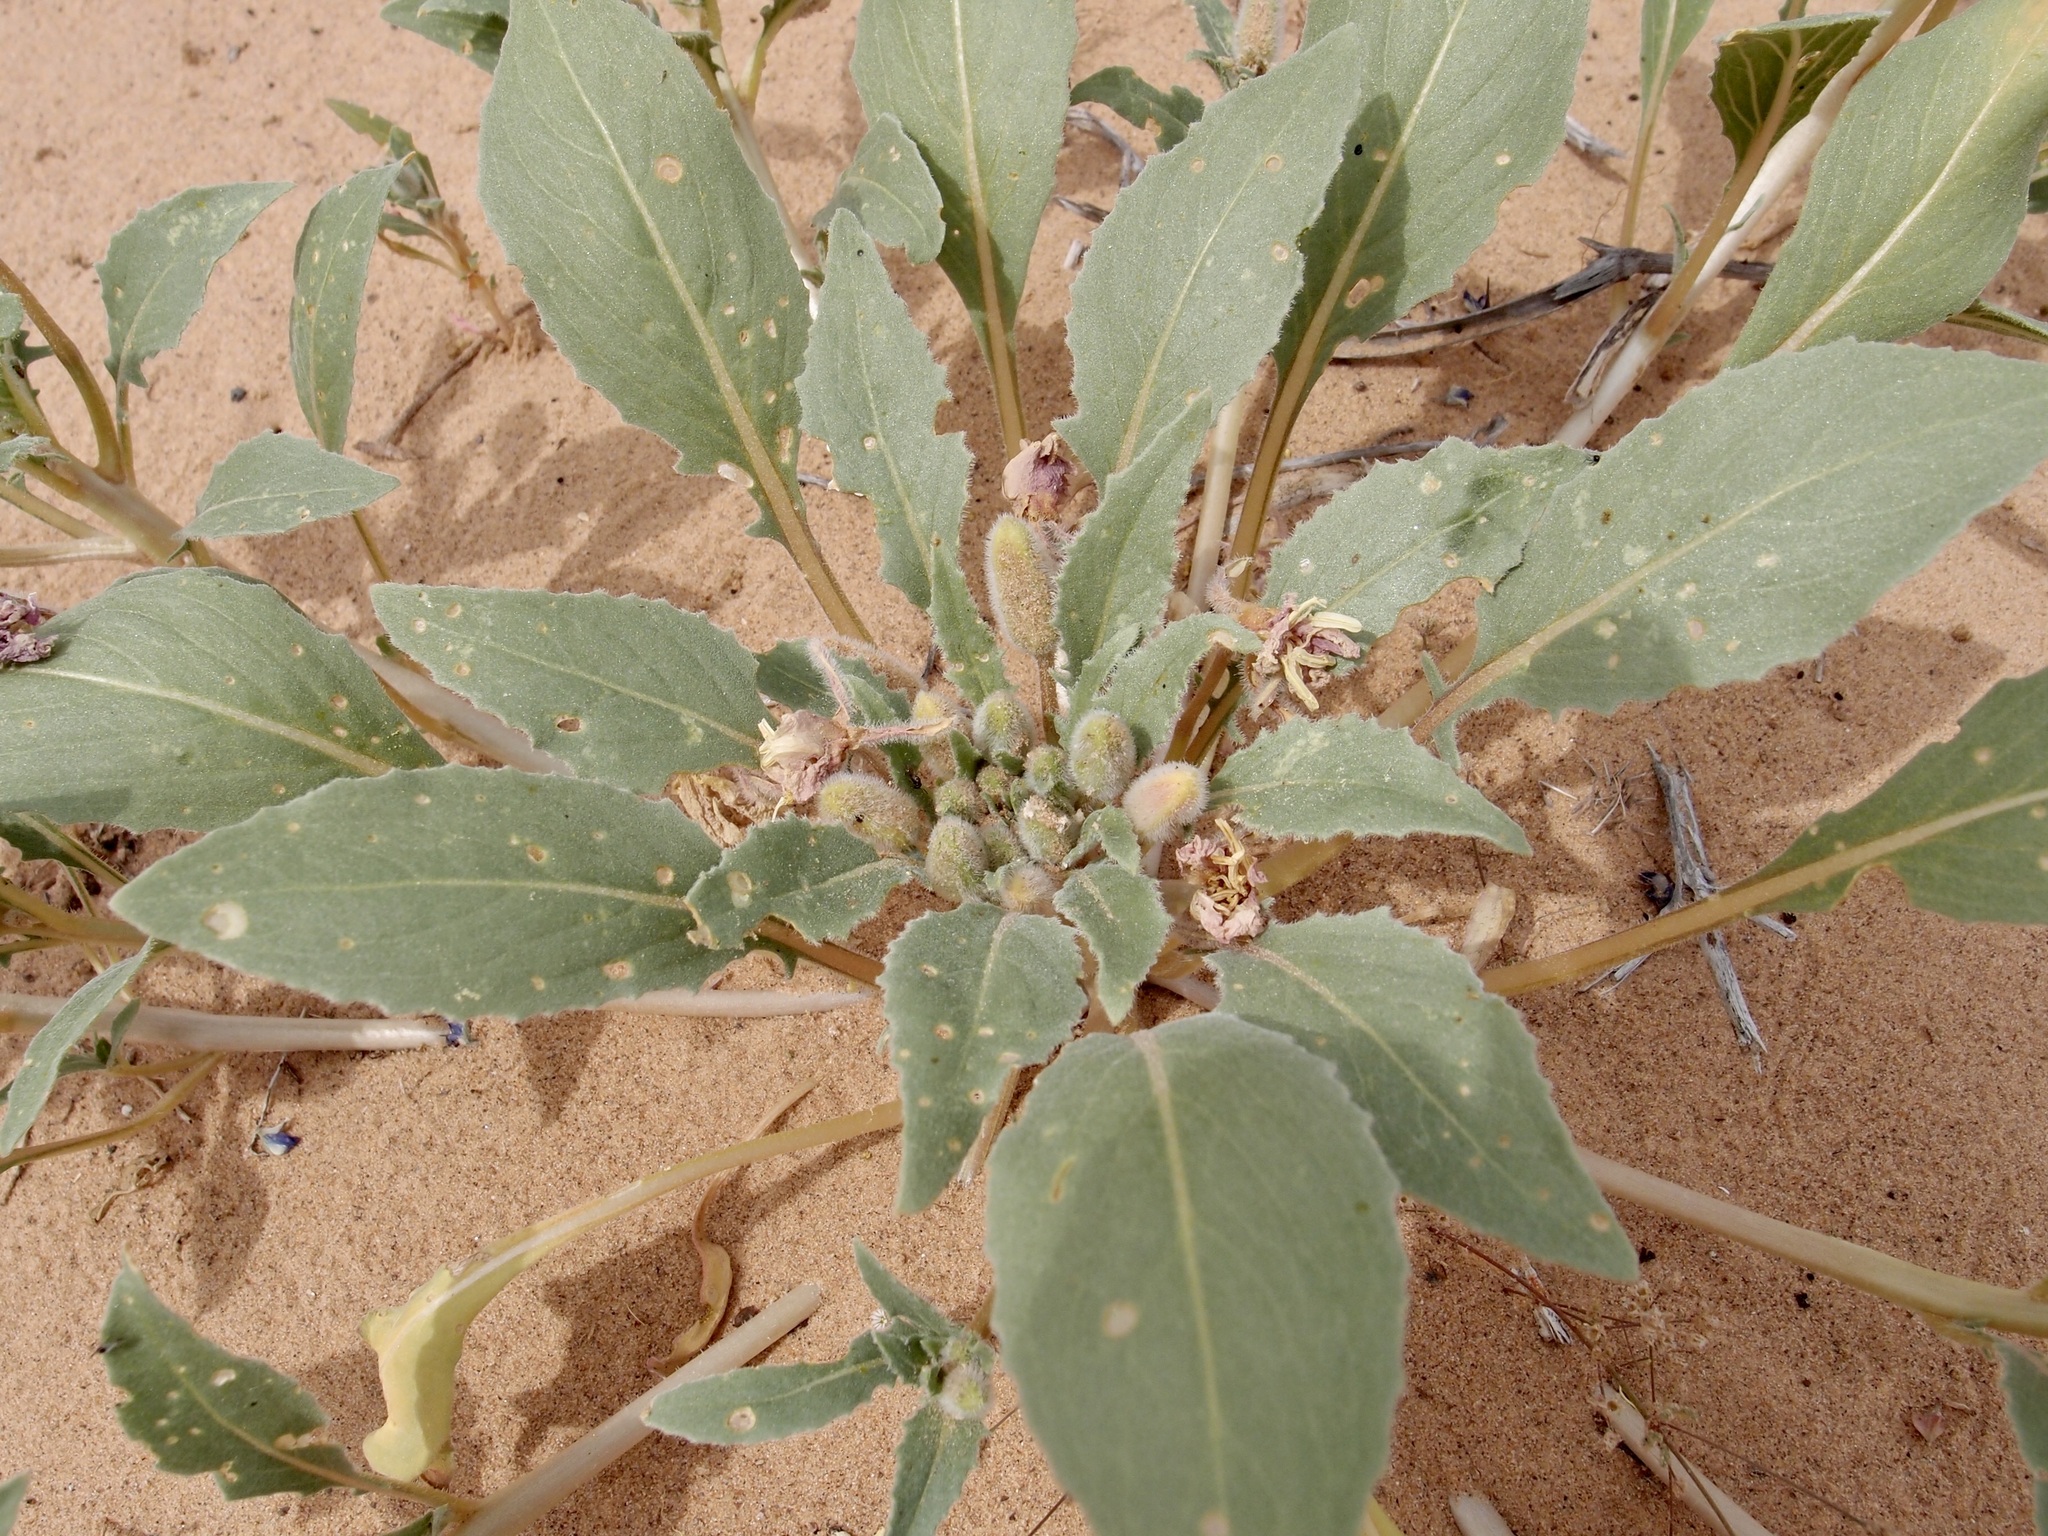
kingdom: Plantae
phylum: Tracheophyta
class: Magnoliopsida
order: Myrtales
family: Onagraceae
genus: Oenothera
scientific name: Oenothera deltoides
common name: Basket evening-primrose
